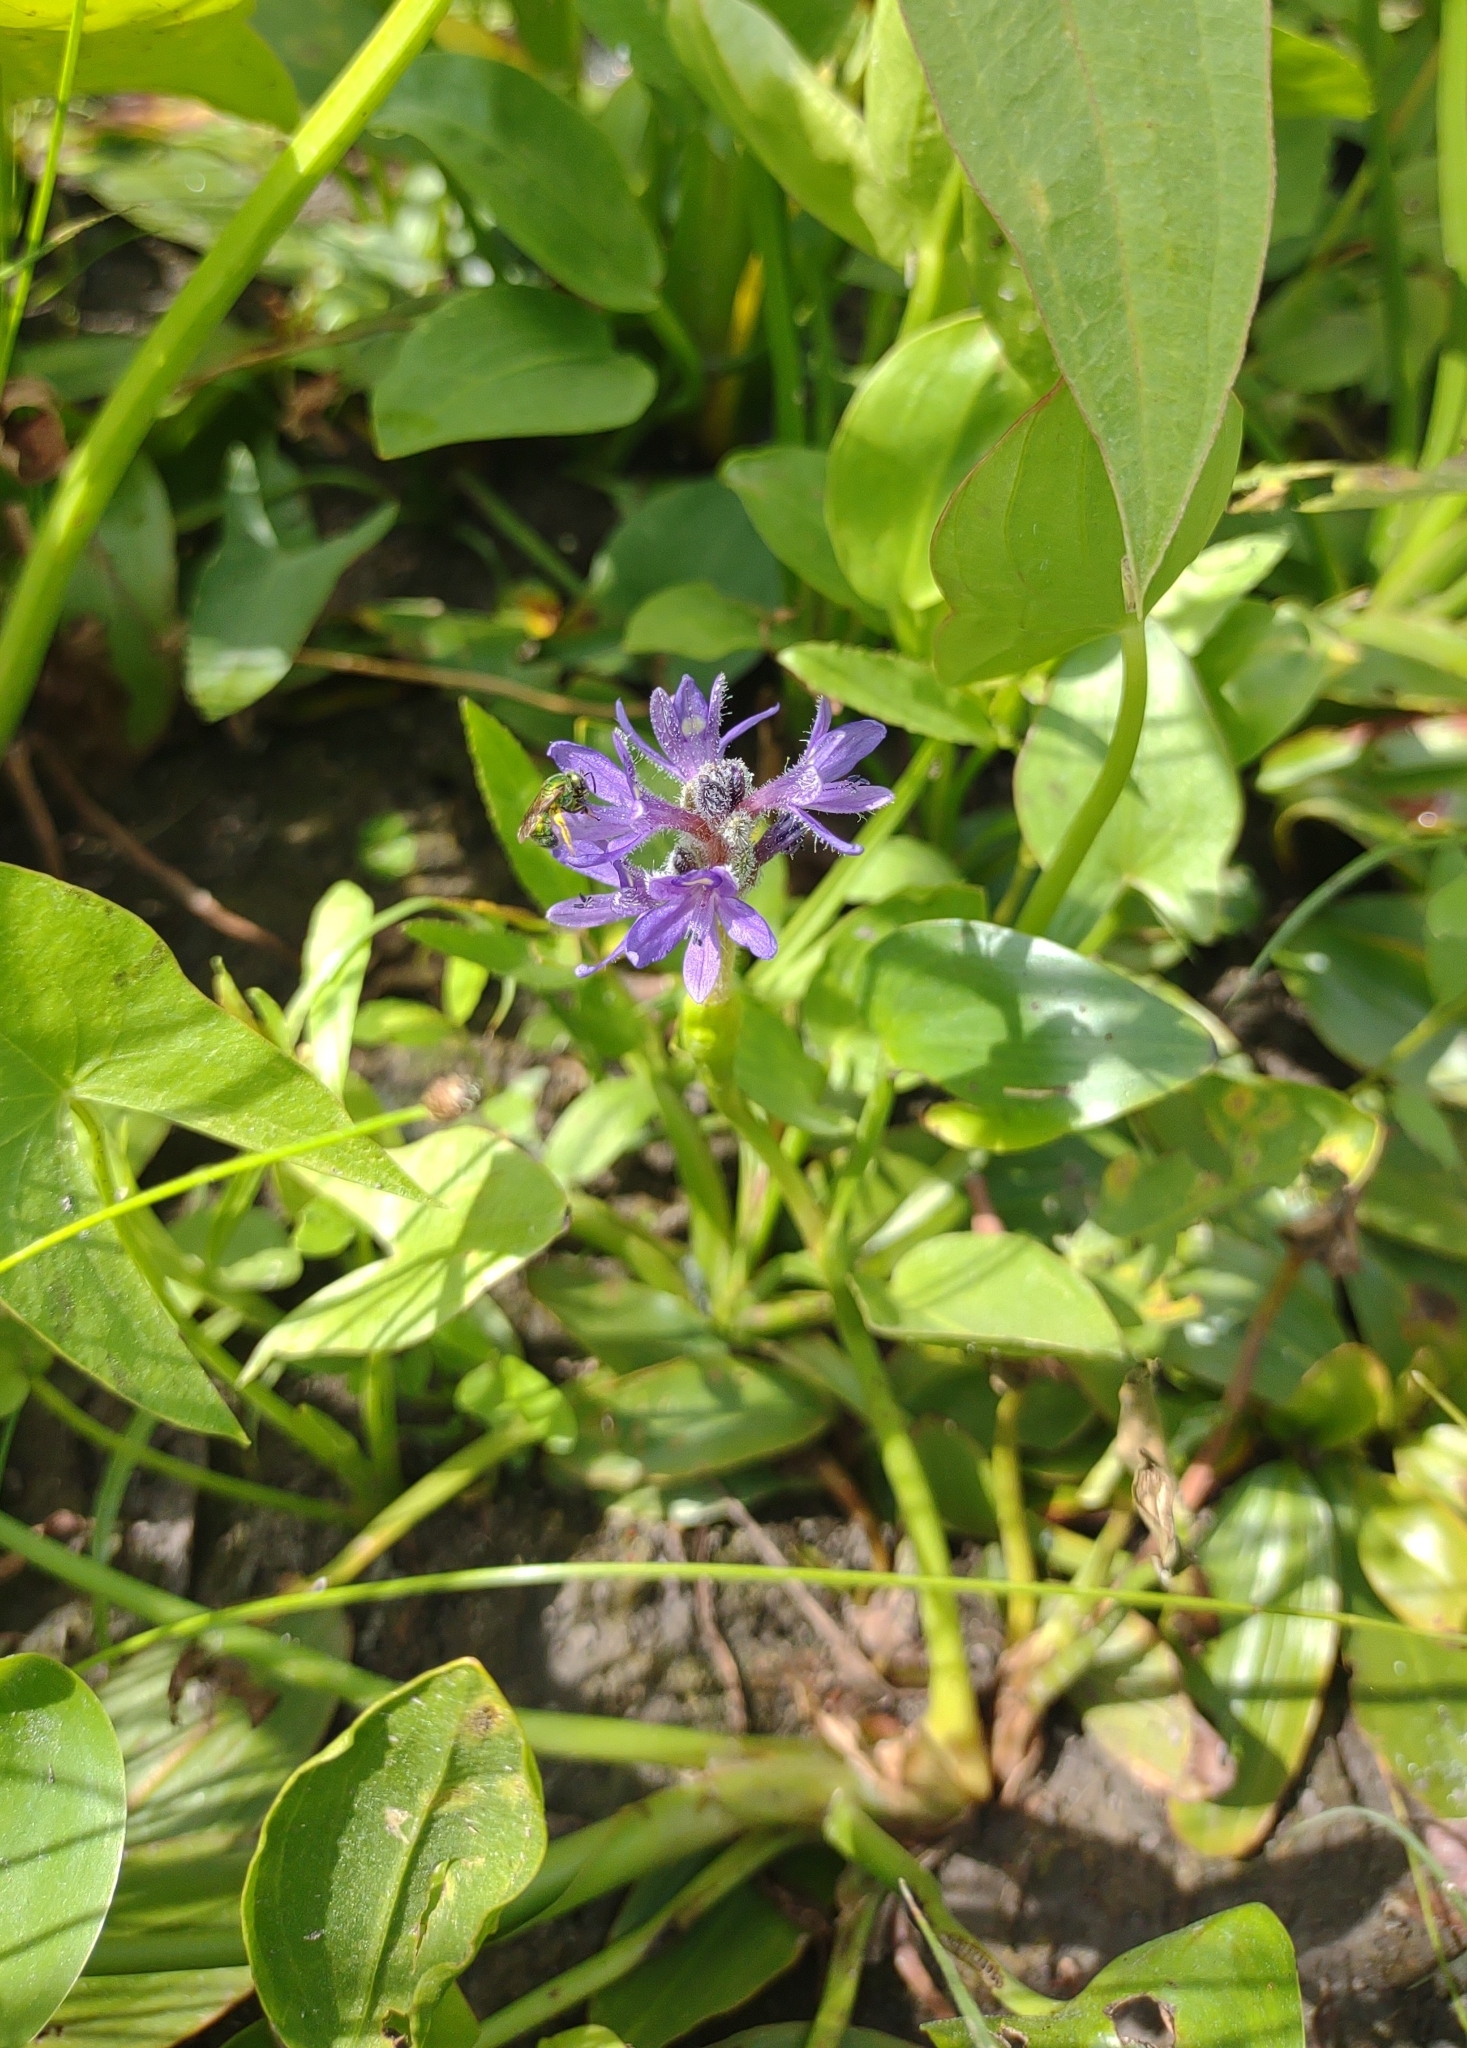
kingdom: Plantae
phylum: Tracheophyta
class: Liliopsida
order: Commelinales
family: Pontederiaceae
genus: Pontederia
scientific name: Pontederia cordata
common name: Pickerelweed
